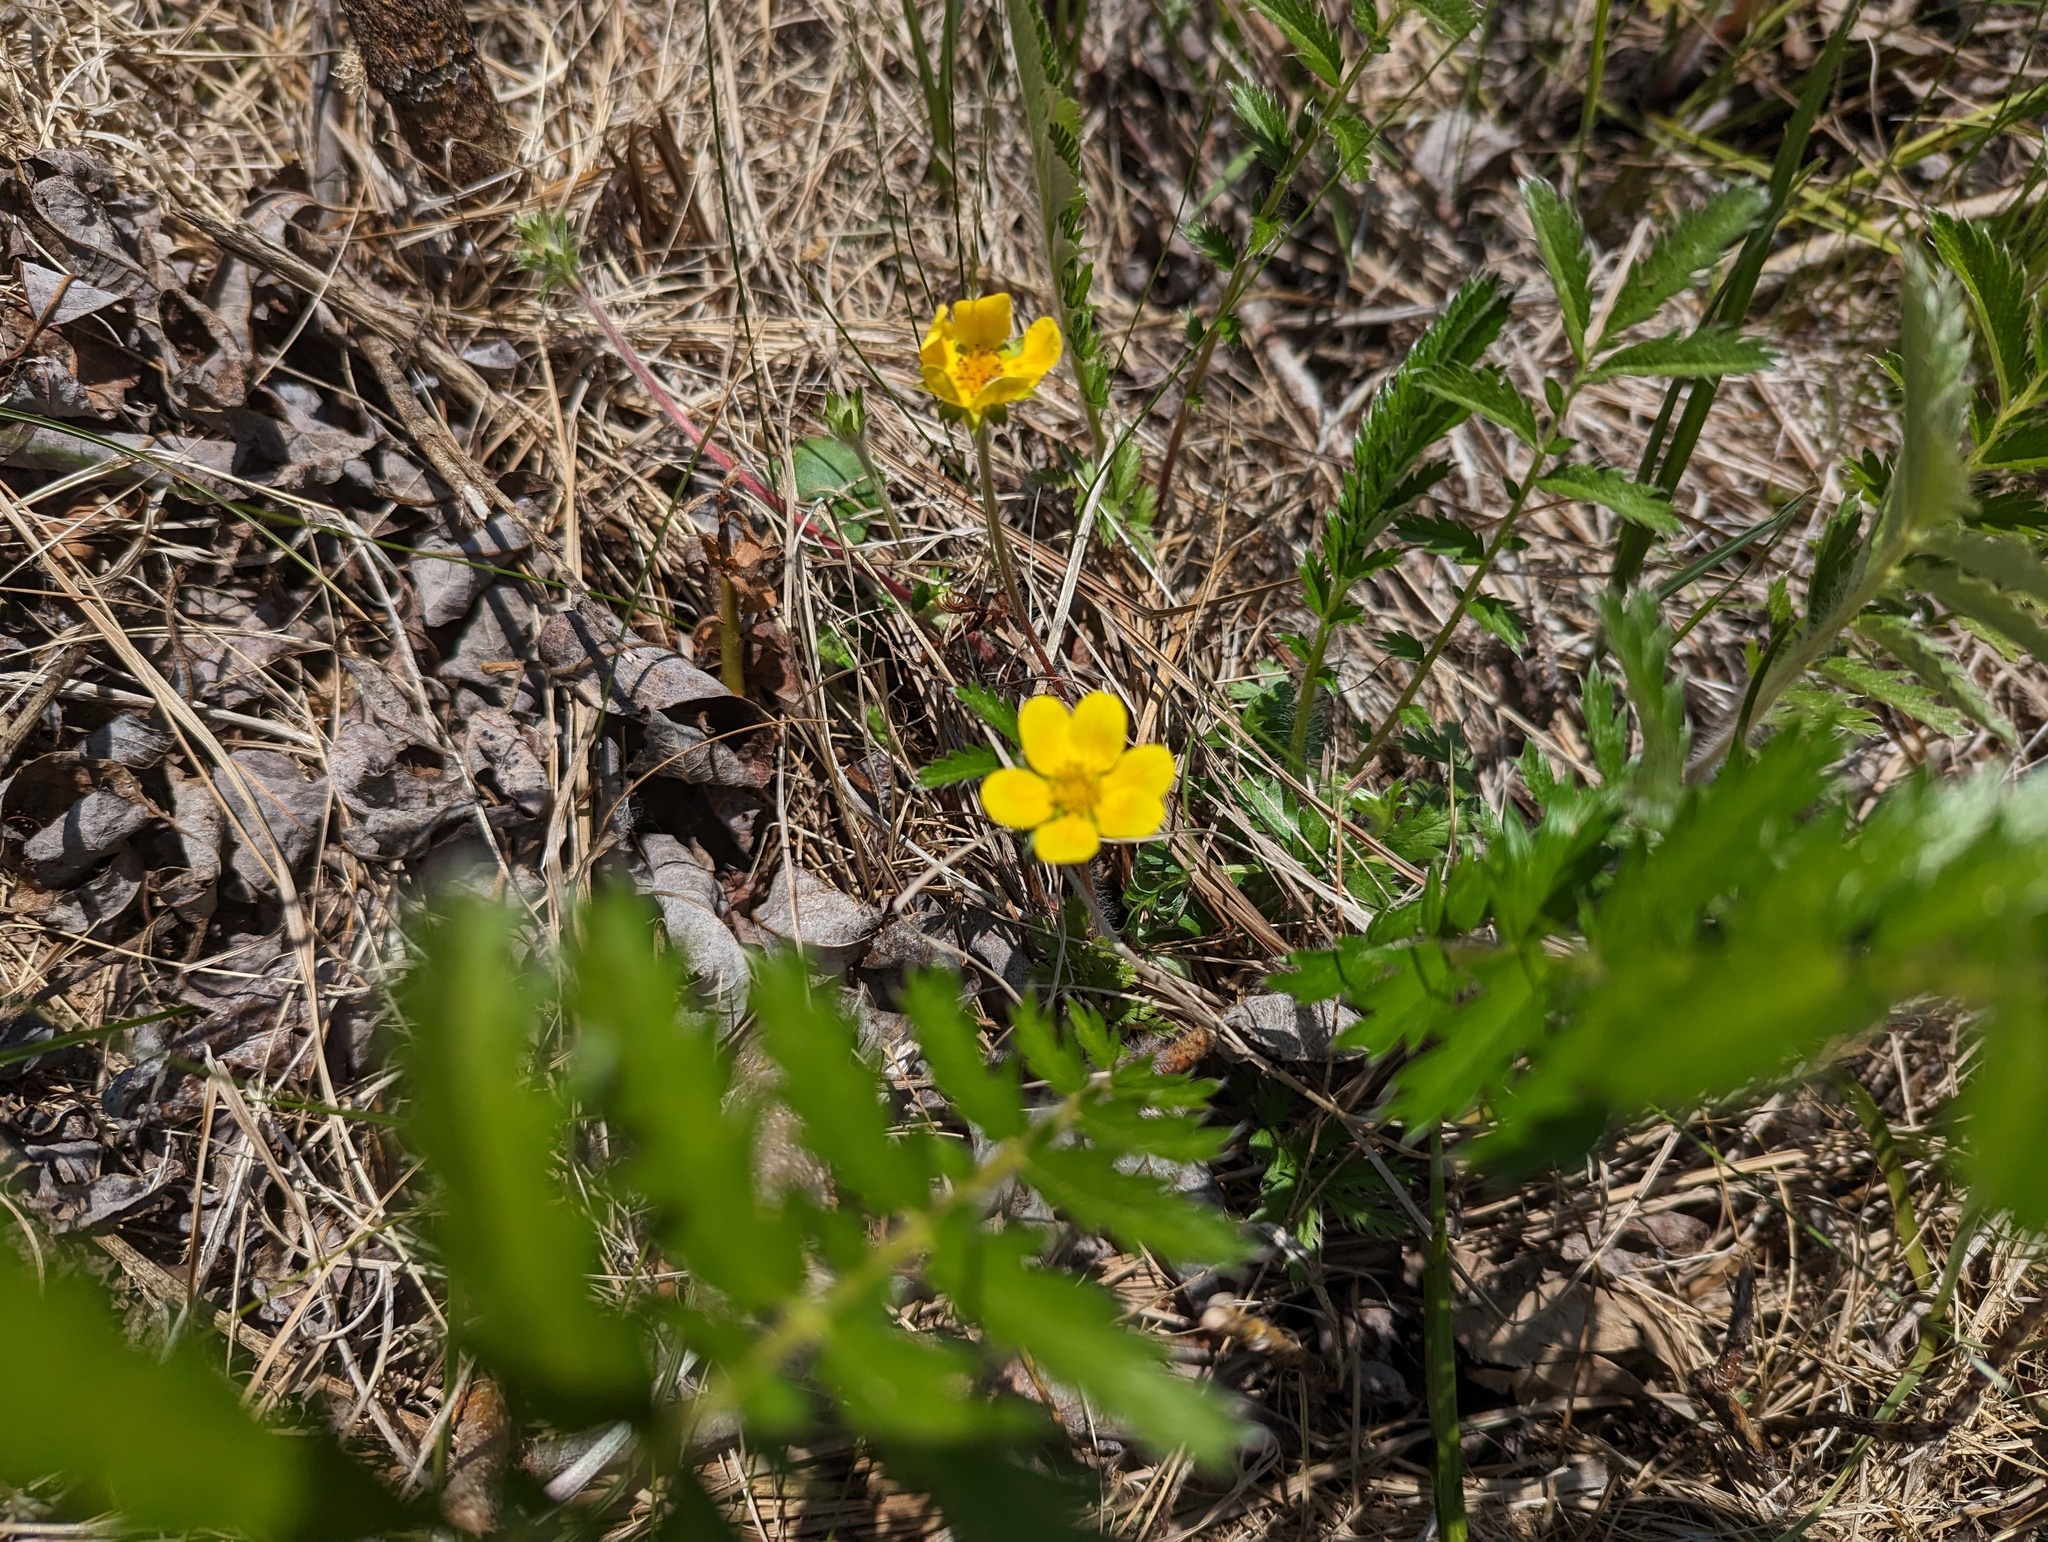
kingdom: Plantae
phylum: Tracheophyta
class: Magnoliopsida
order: Rosales
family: Rosaceae
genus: Argentina
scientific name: Argentina anserina
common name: Common silverweed
